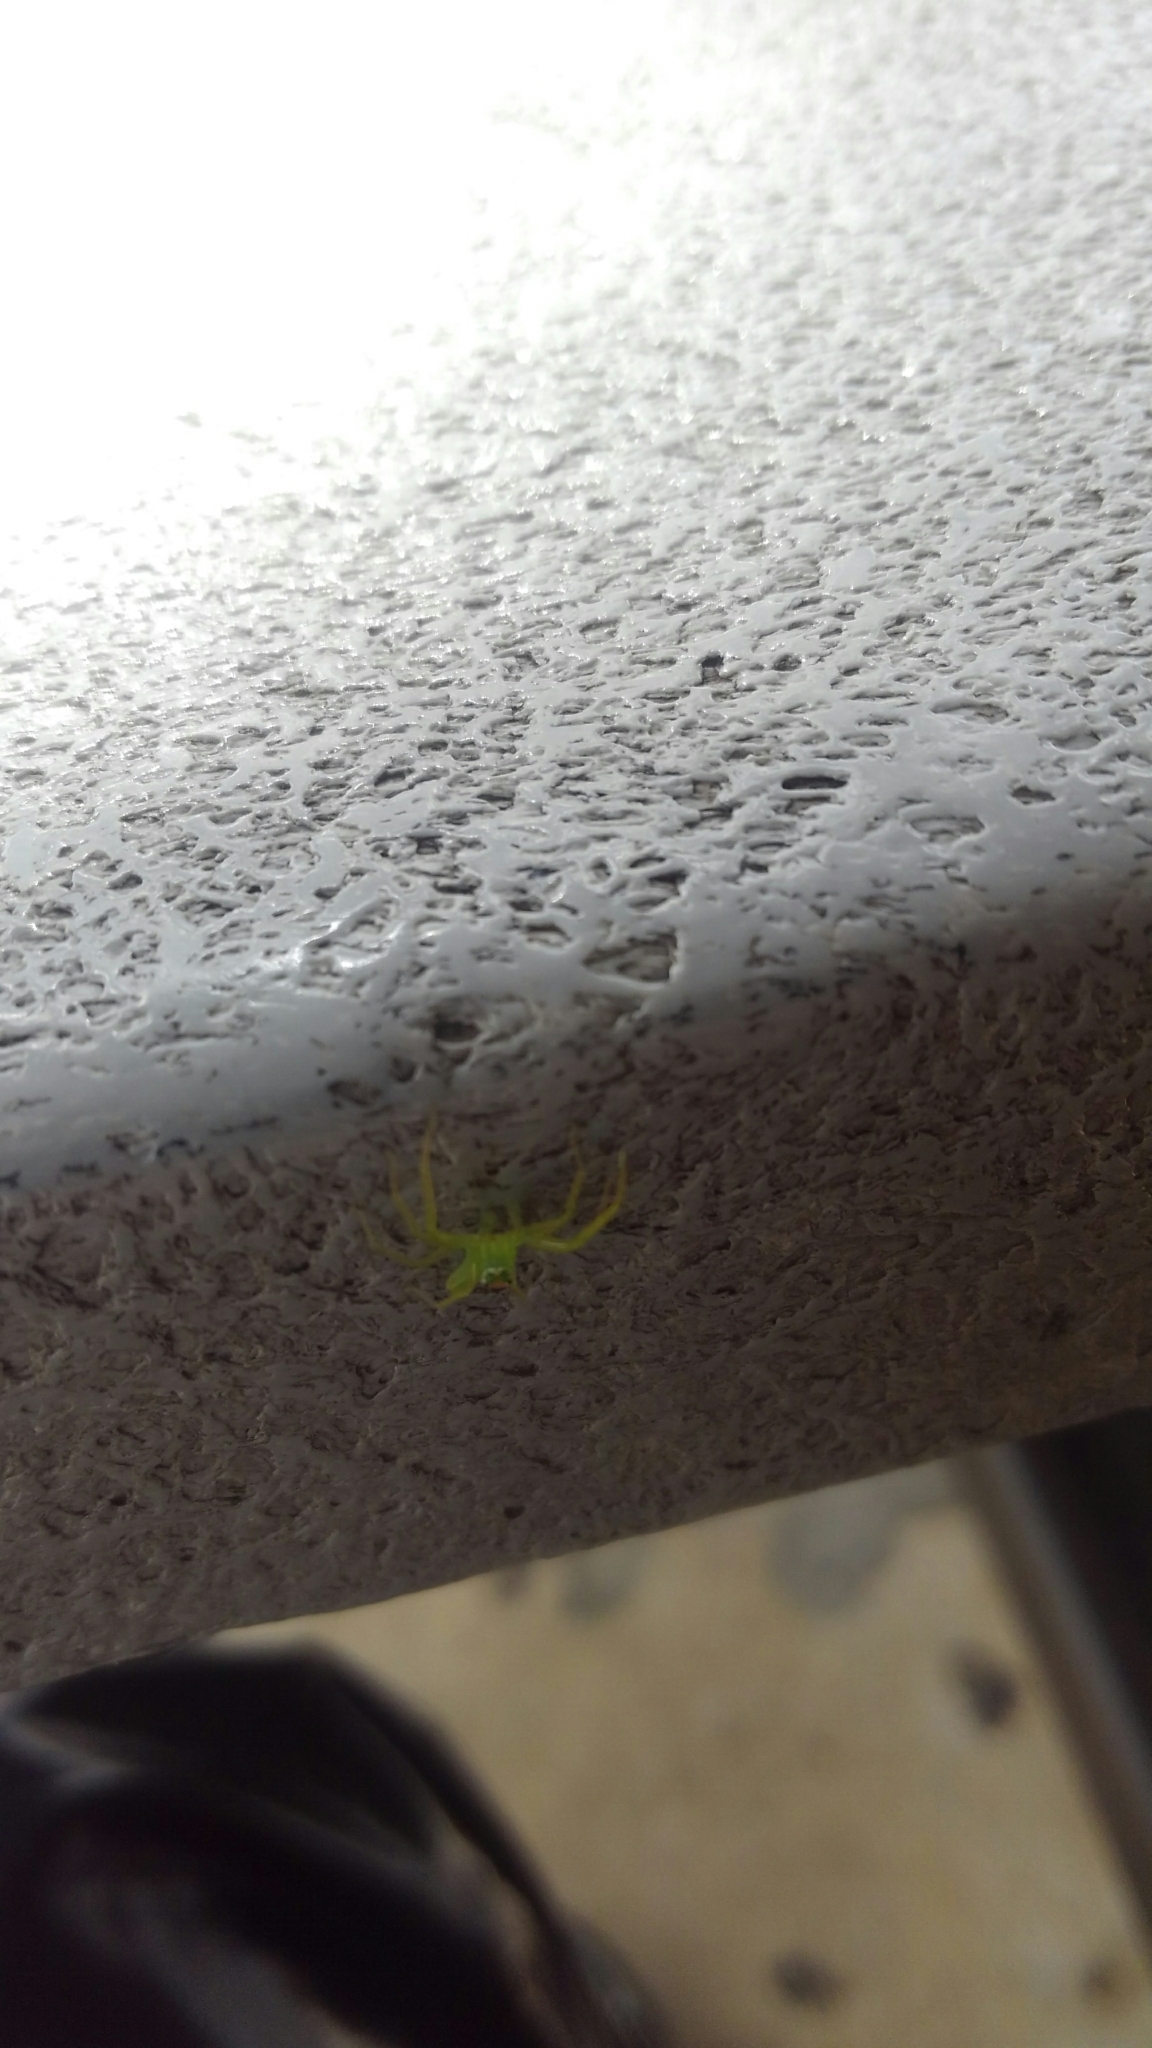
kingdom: Animalia
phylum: Arthropoda
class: Arachnida
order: Araneae
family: Salticidae
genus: Lyssomanes
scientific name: Lyssomanes viridis
